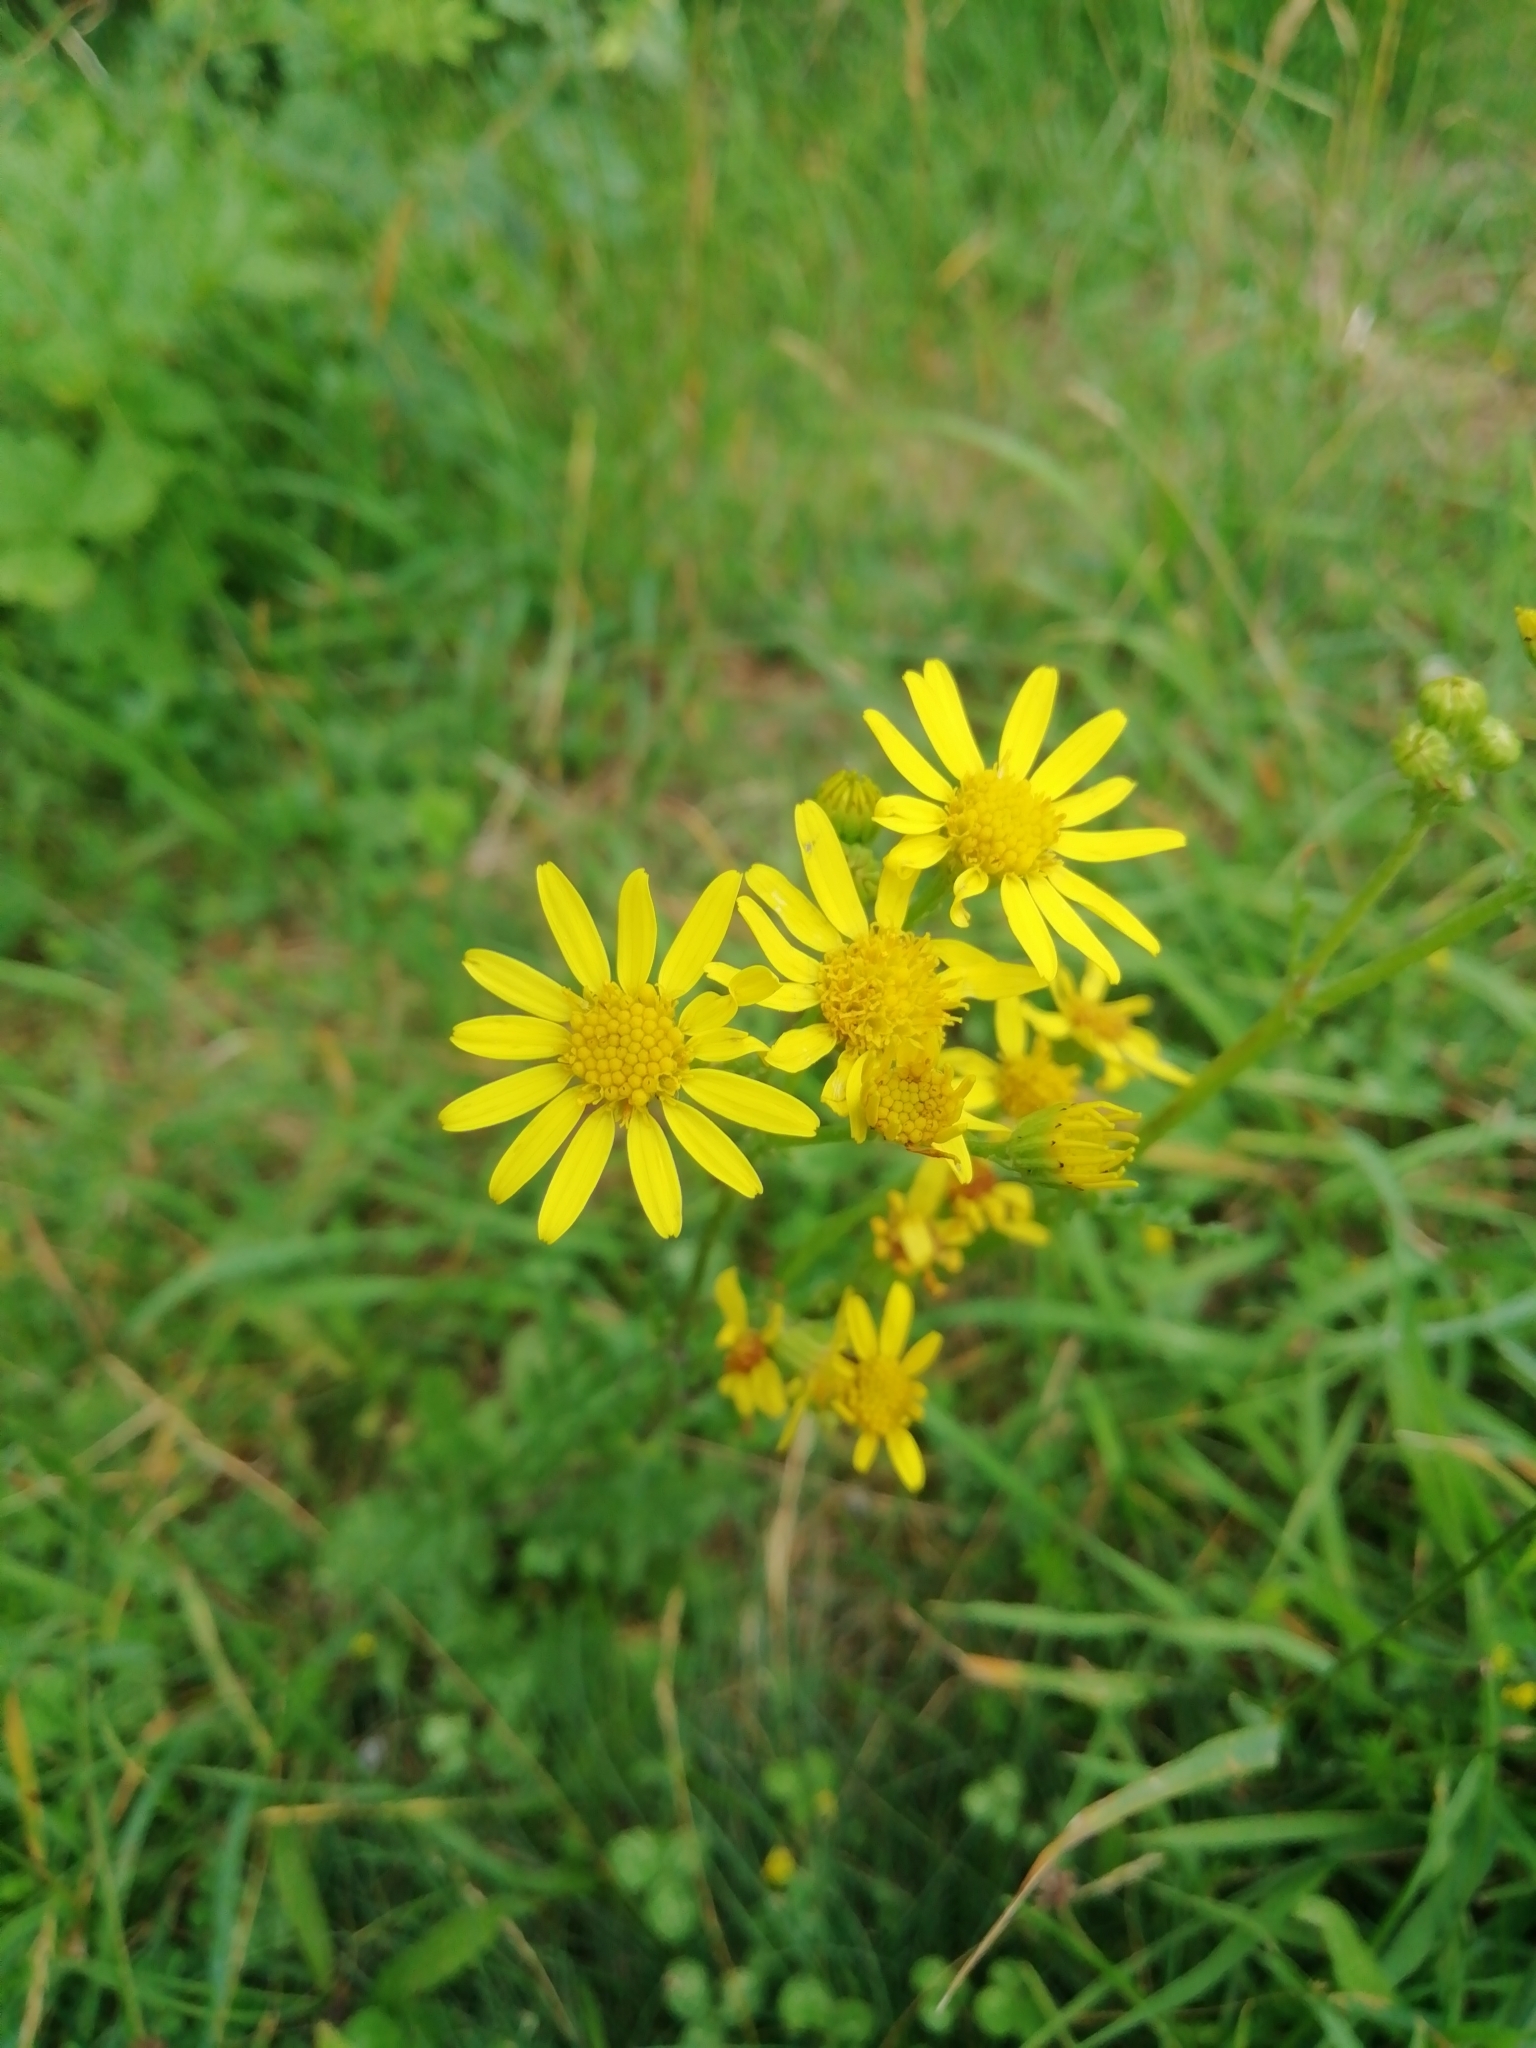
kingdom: Plantae
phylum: Tracheophyta
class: Magnoliopsida
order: Asterales
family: Asteraceae
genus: Jacobaea
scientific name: Jacobaea vulgaris
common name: Stinking willie
